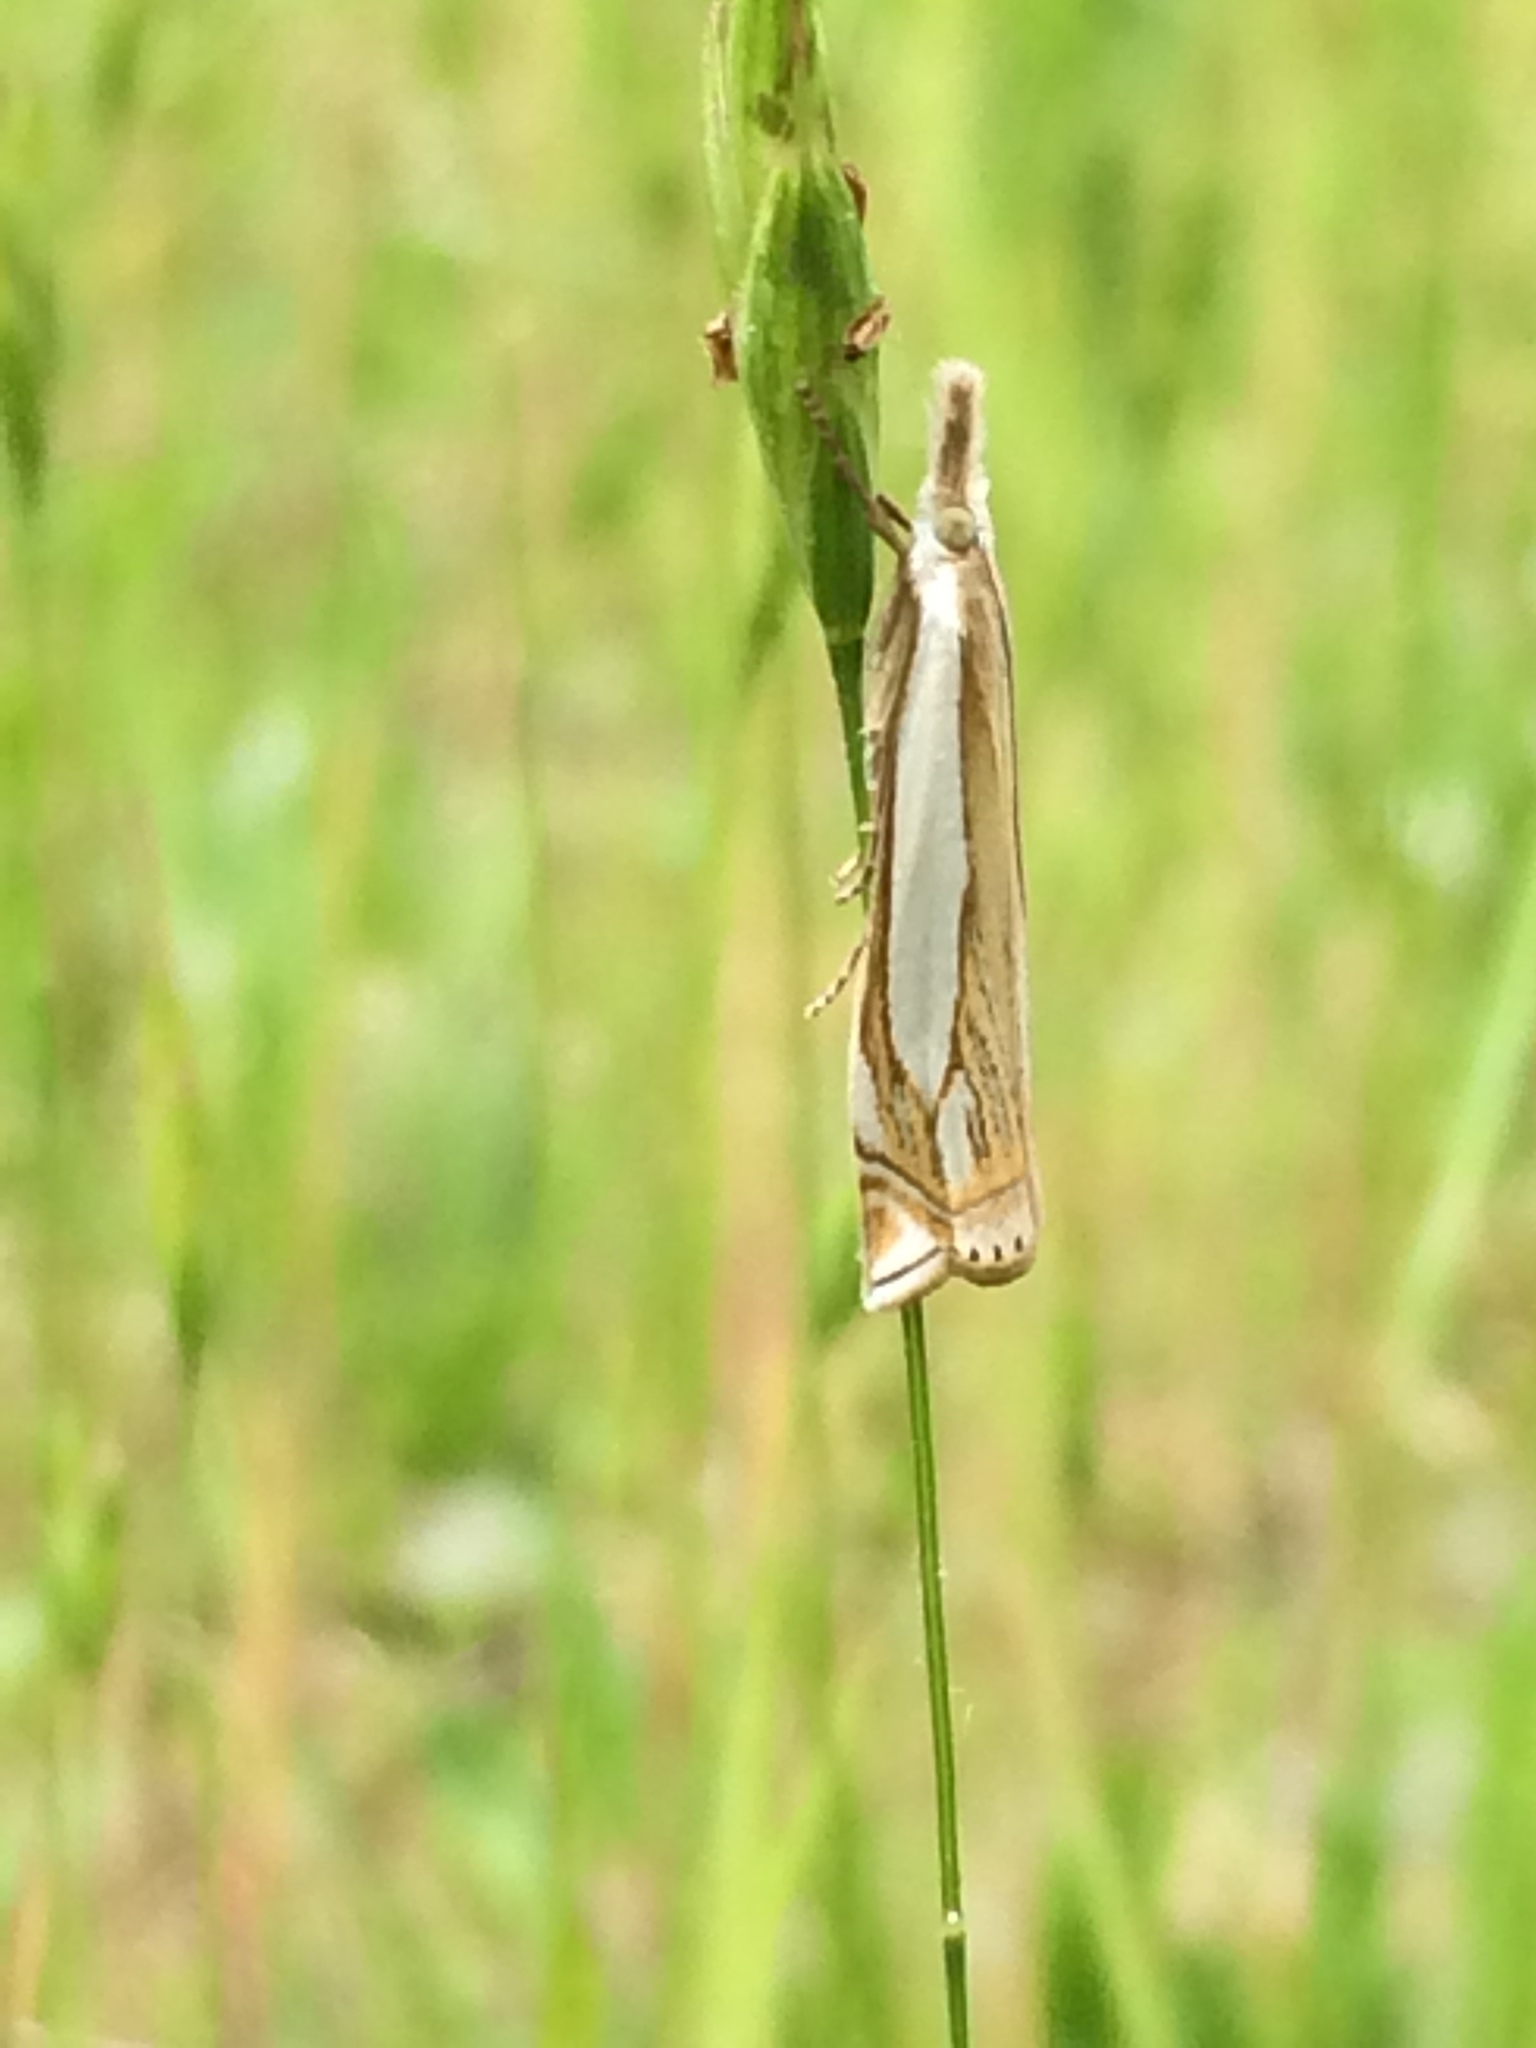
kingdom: Animalia
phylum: Arthropoda
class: Insecta
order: Lepidoptera
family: Crambidae
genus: Crambus
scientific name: Crambus pascuella
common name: Inlaid grass-veneer
